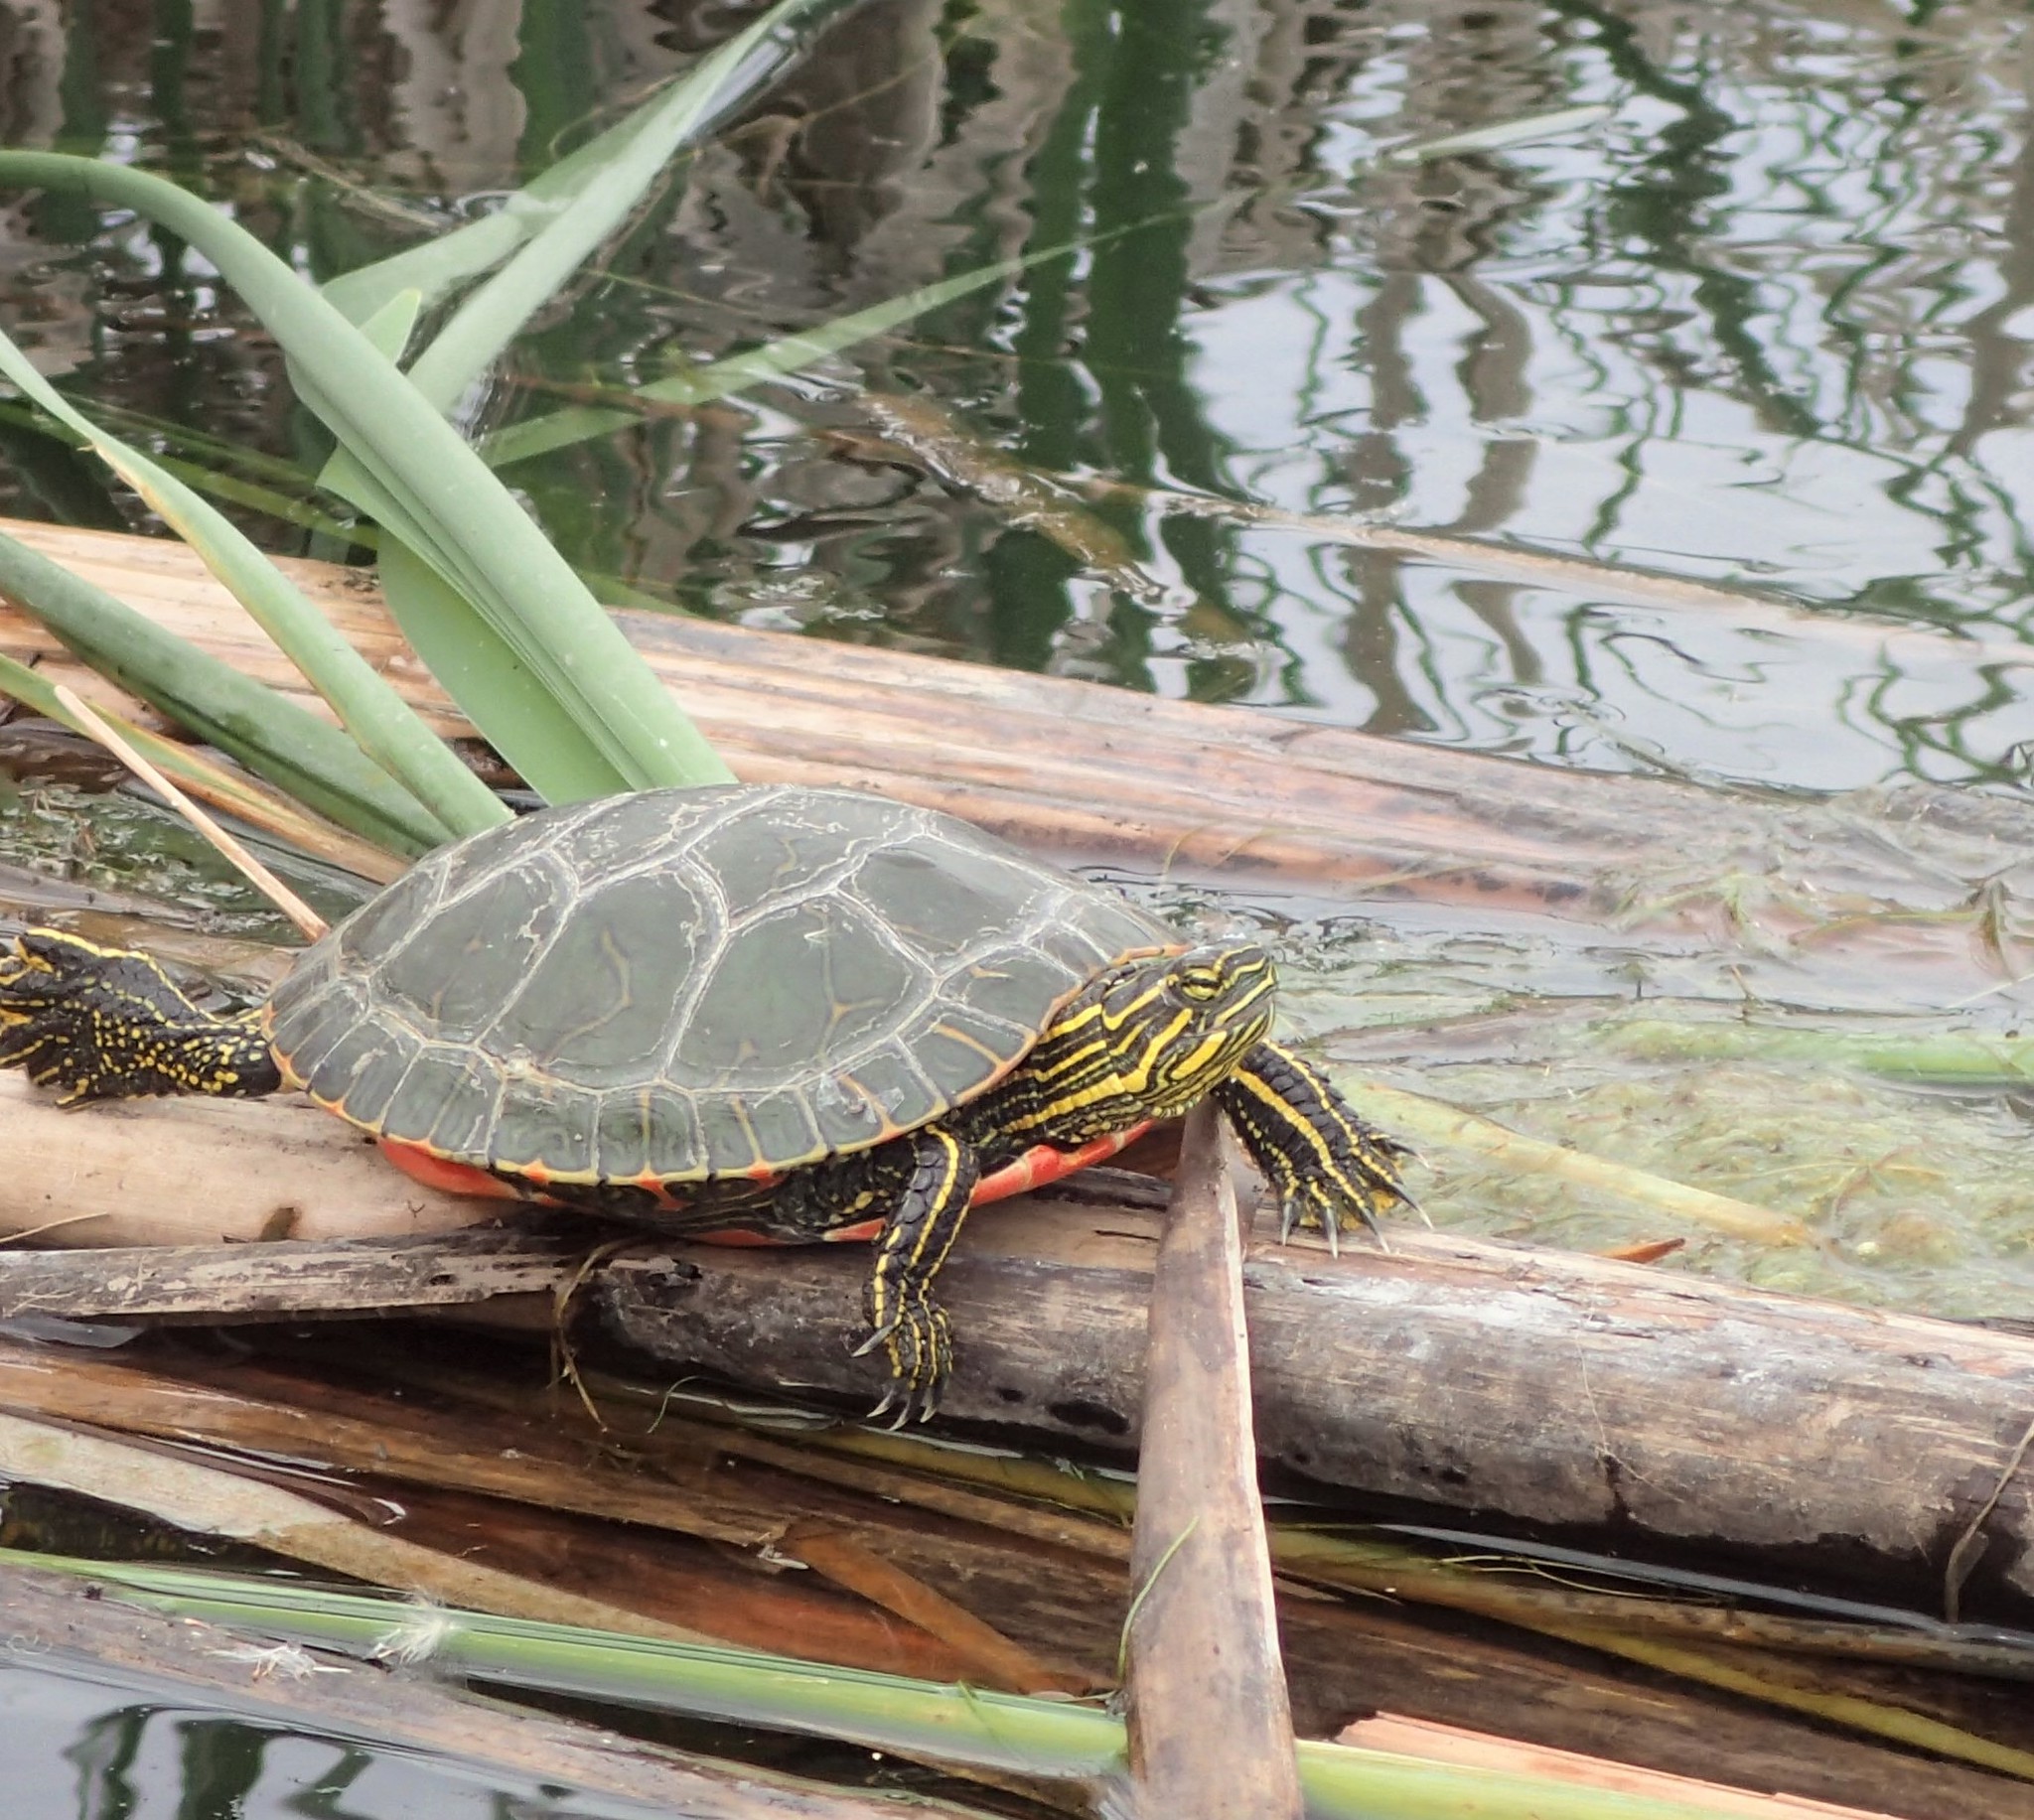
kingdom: Animalia
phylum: Chordata
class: Testudines
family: Emydidae
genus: Chrysemys
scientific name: Chrysemys picta
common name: Painted turtle
